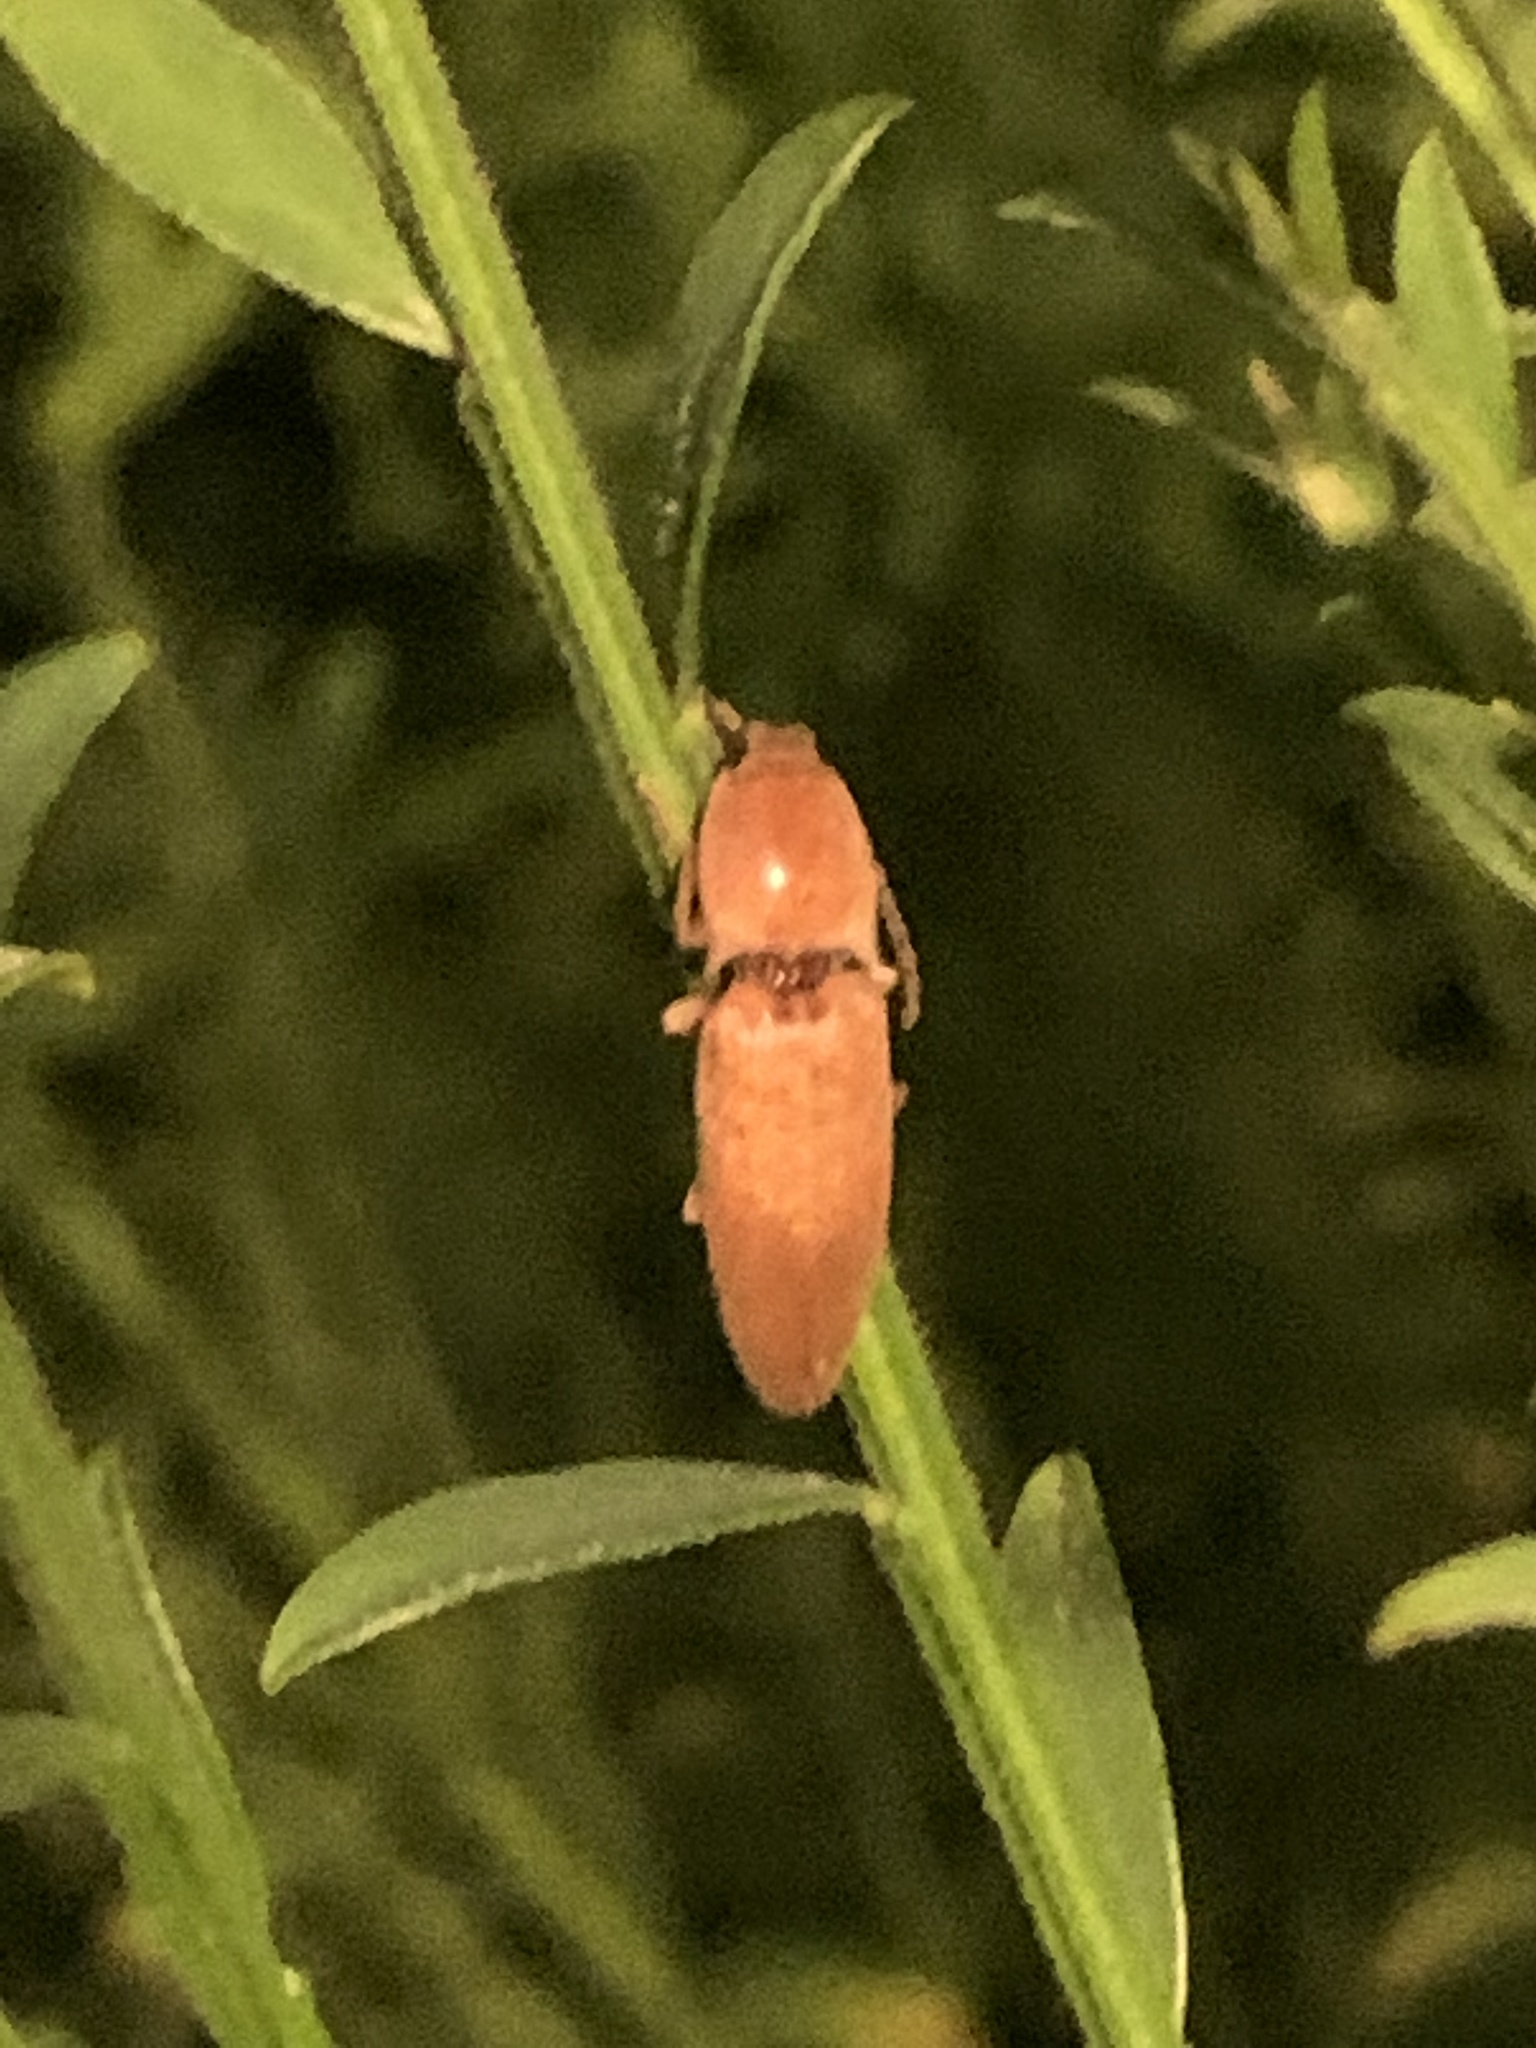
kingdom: Animalia
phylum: Arthropoda
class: Insecta
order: Coleoptera
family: Elateridae
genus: Monocrepidius
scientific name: Monocrepidius lividus
